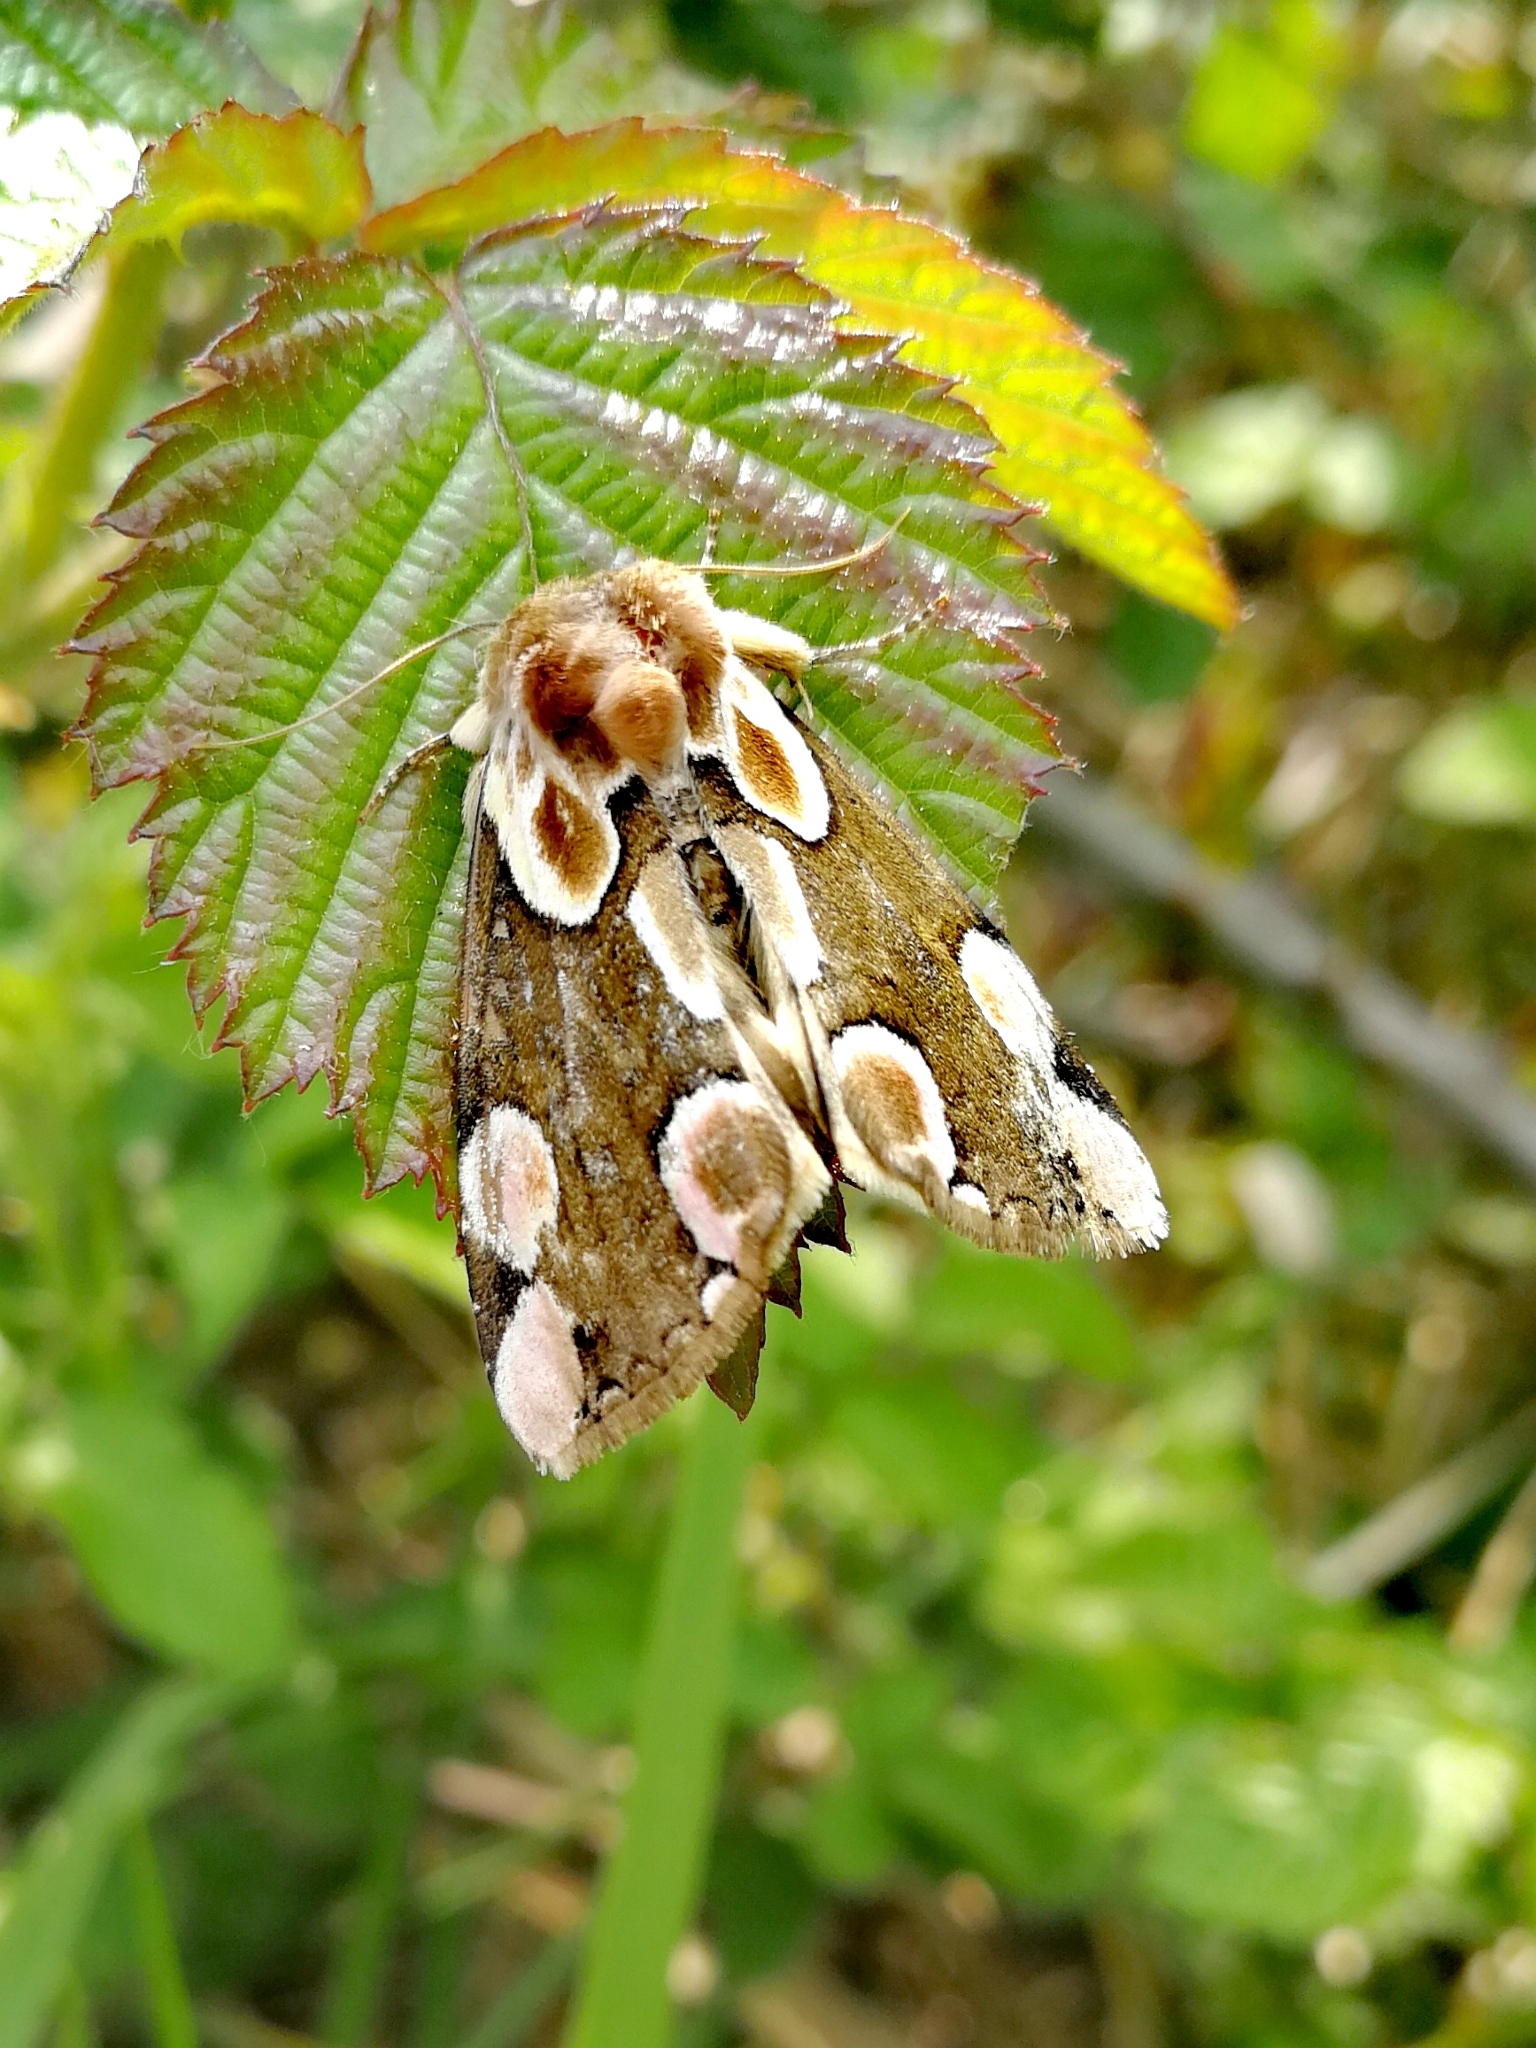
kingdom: Animalia
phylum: Arthropoda
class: Insecta
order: Lepidoptera
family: Drepanidae
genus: Thyatira
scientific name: Thyatira batis
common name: Peach blossom
